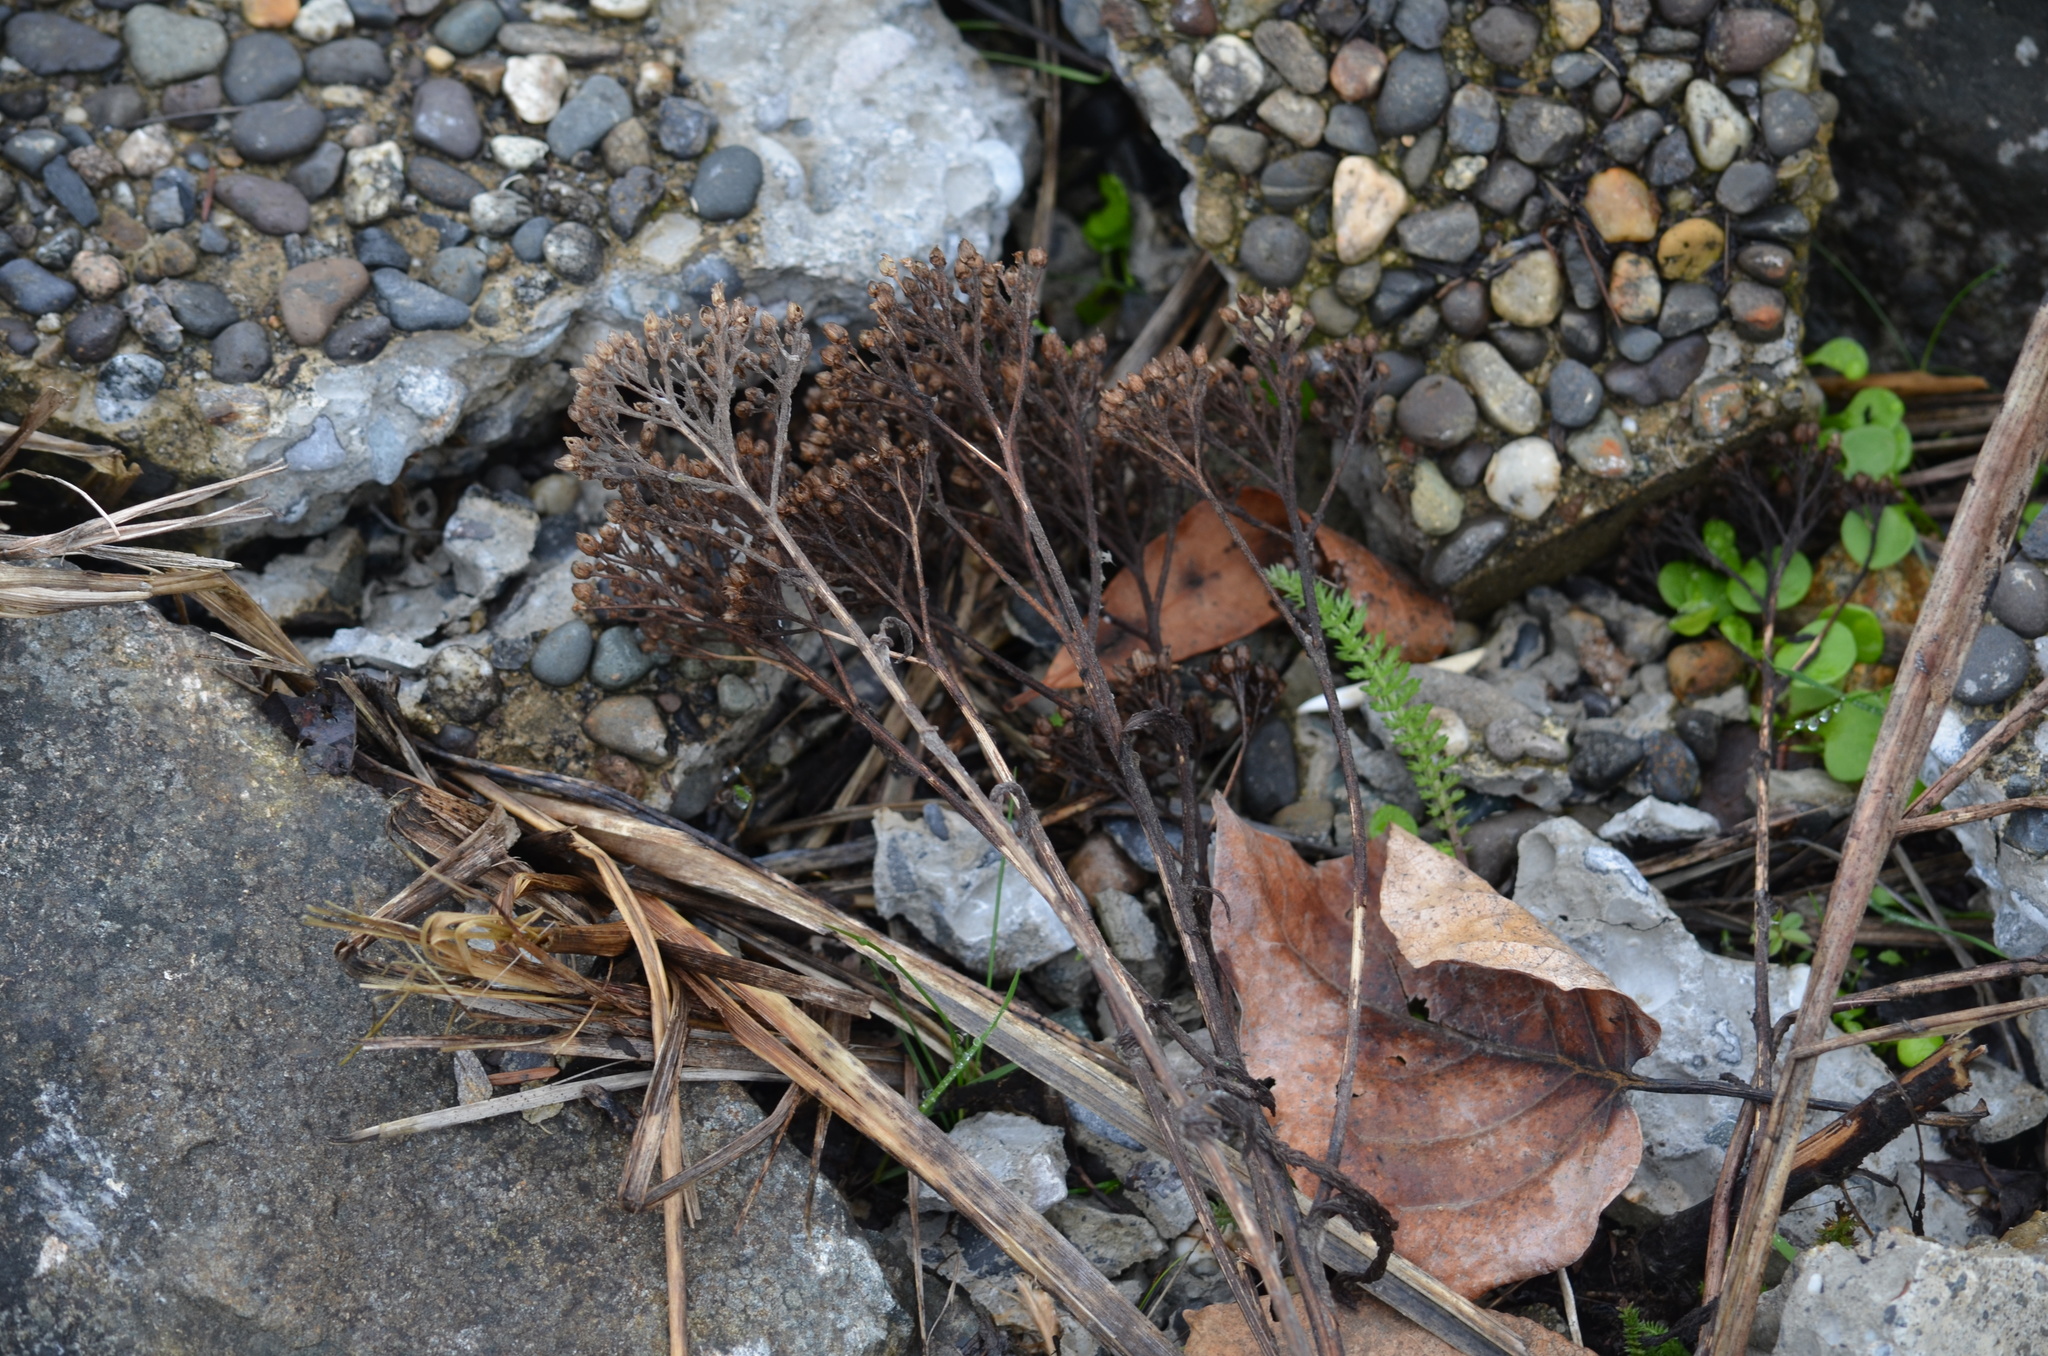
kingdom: Plantae
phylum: Tracheophyta
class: Magnoliopsida
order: Asterales
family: Asteraceae
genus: Achillea
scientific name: Achillea millefolium
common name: Yarrow
